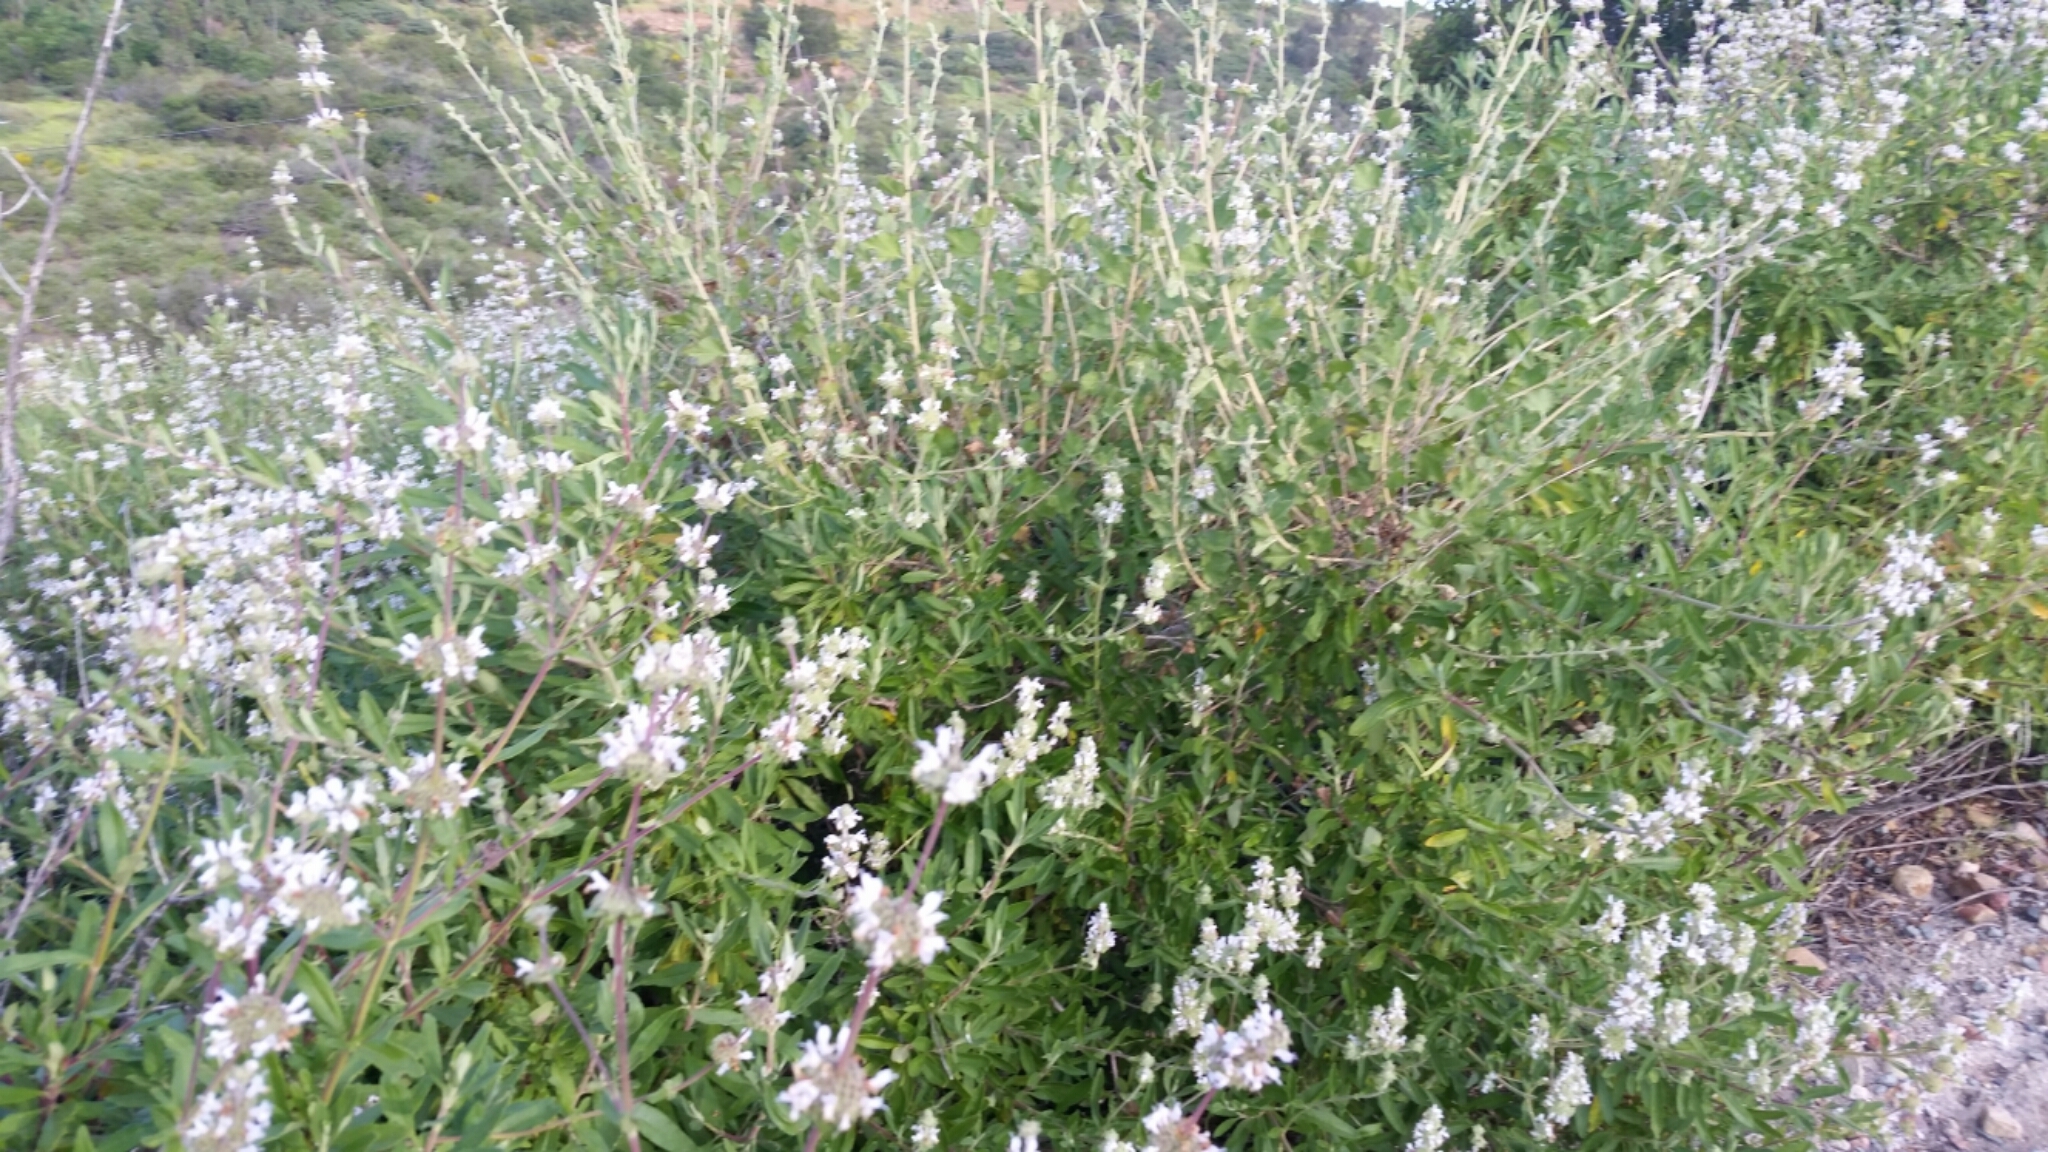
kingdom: Plantae
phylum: Tracheophyta
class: Magnoliopsida
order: Lamiales
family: Lamiaceae
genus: Salvia
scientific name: Salvia mellifera
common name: Black sage
